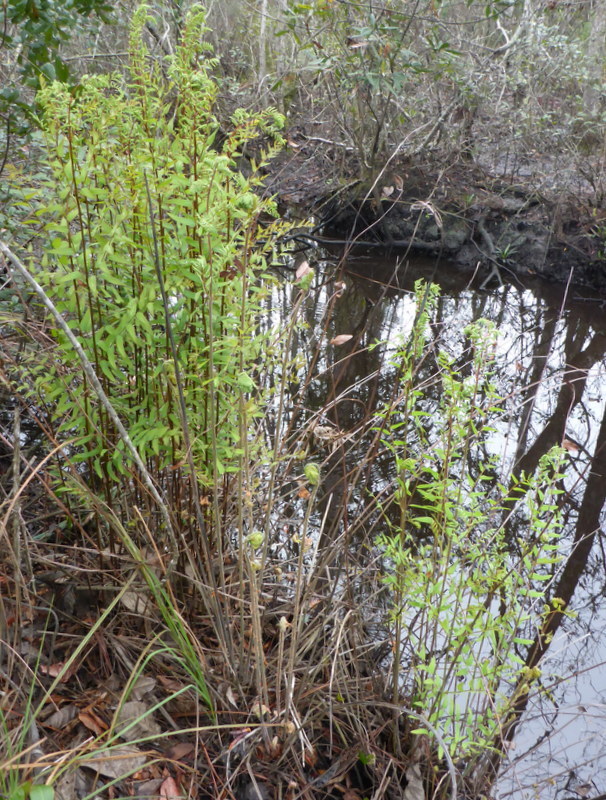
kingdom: Plantae
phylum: Tracheophyta
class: Polypodiopsida
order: Osmundales
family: Osmundaceae
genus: Osmunda
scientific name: Osmunda spectabilis
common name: American royal fern
